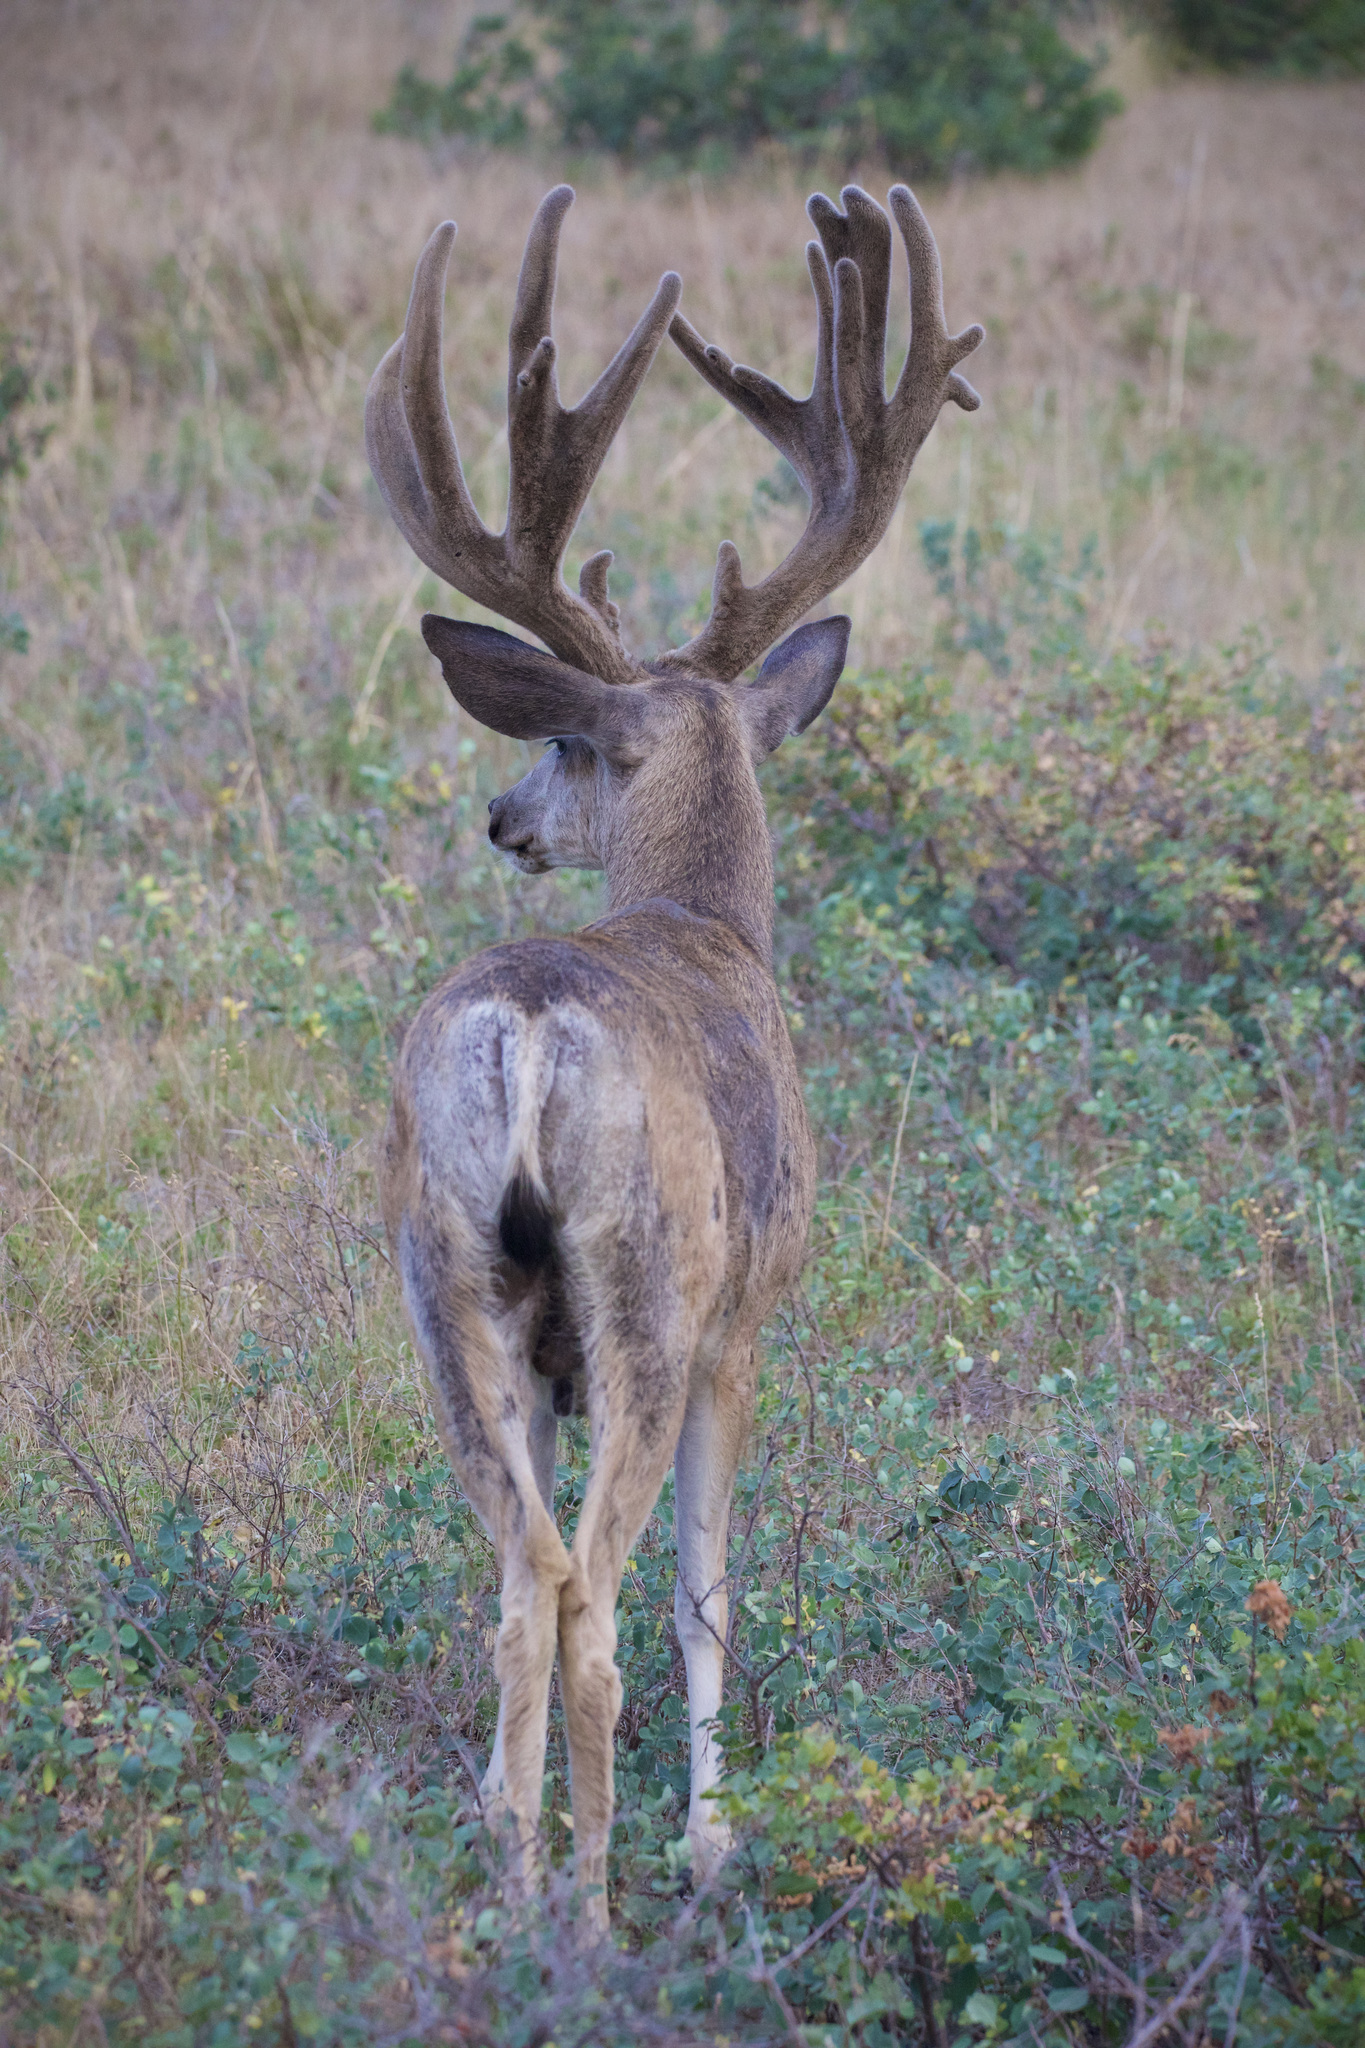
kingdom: Animalia
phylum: Chordata
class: Mammalia
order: Artiodactyla
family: Cervidae
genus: Odocoileus
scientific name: Odocoileus hemionus
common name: Mule deer
